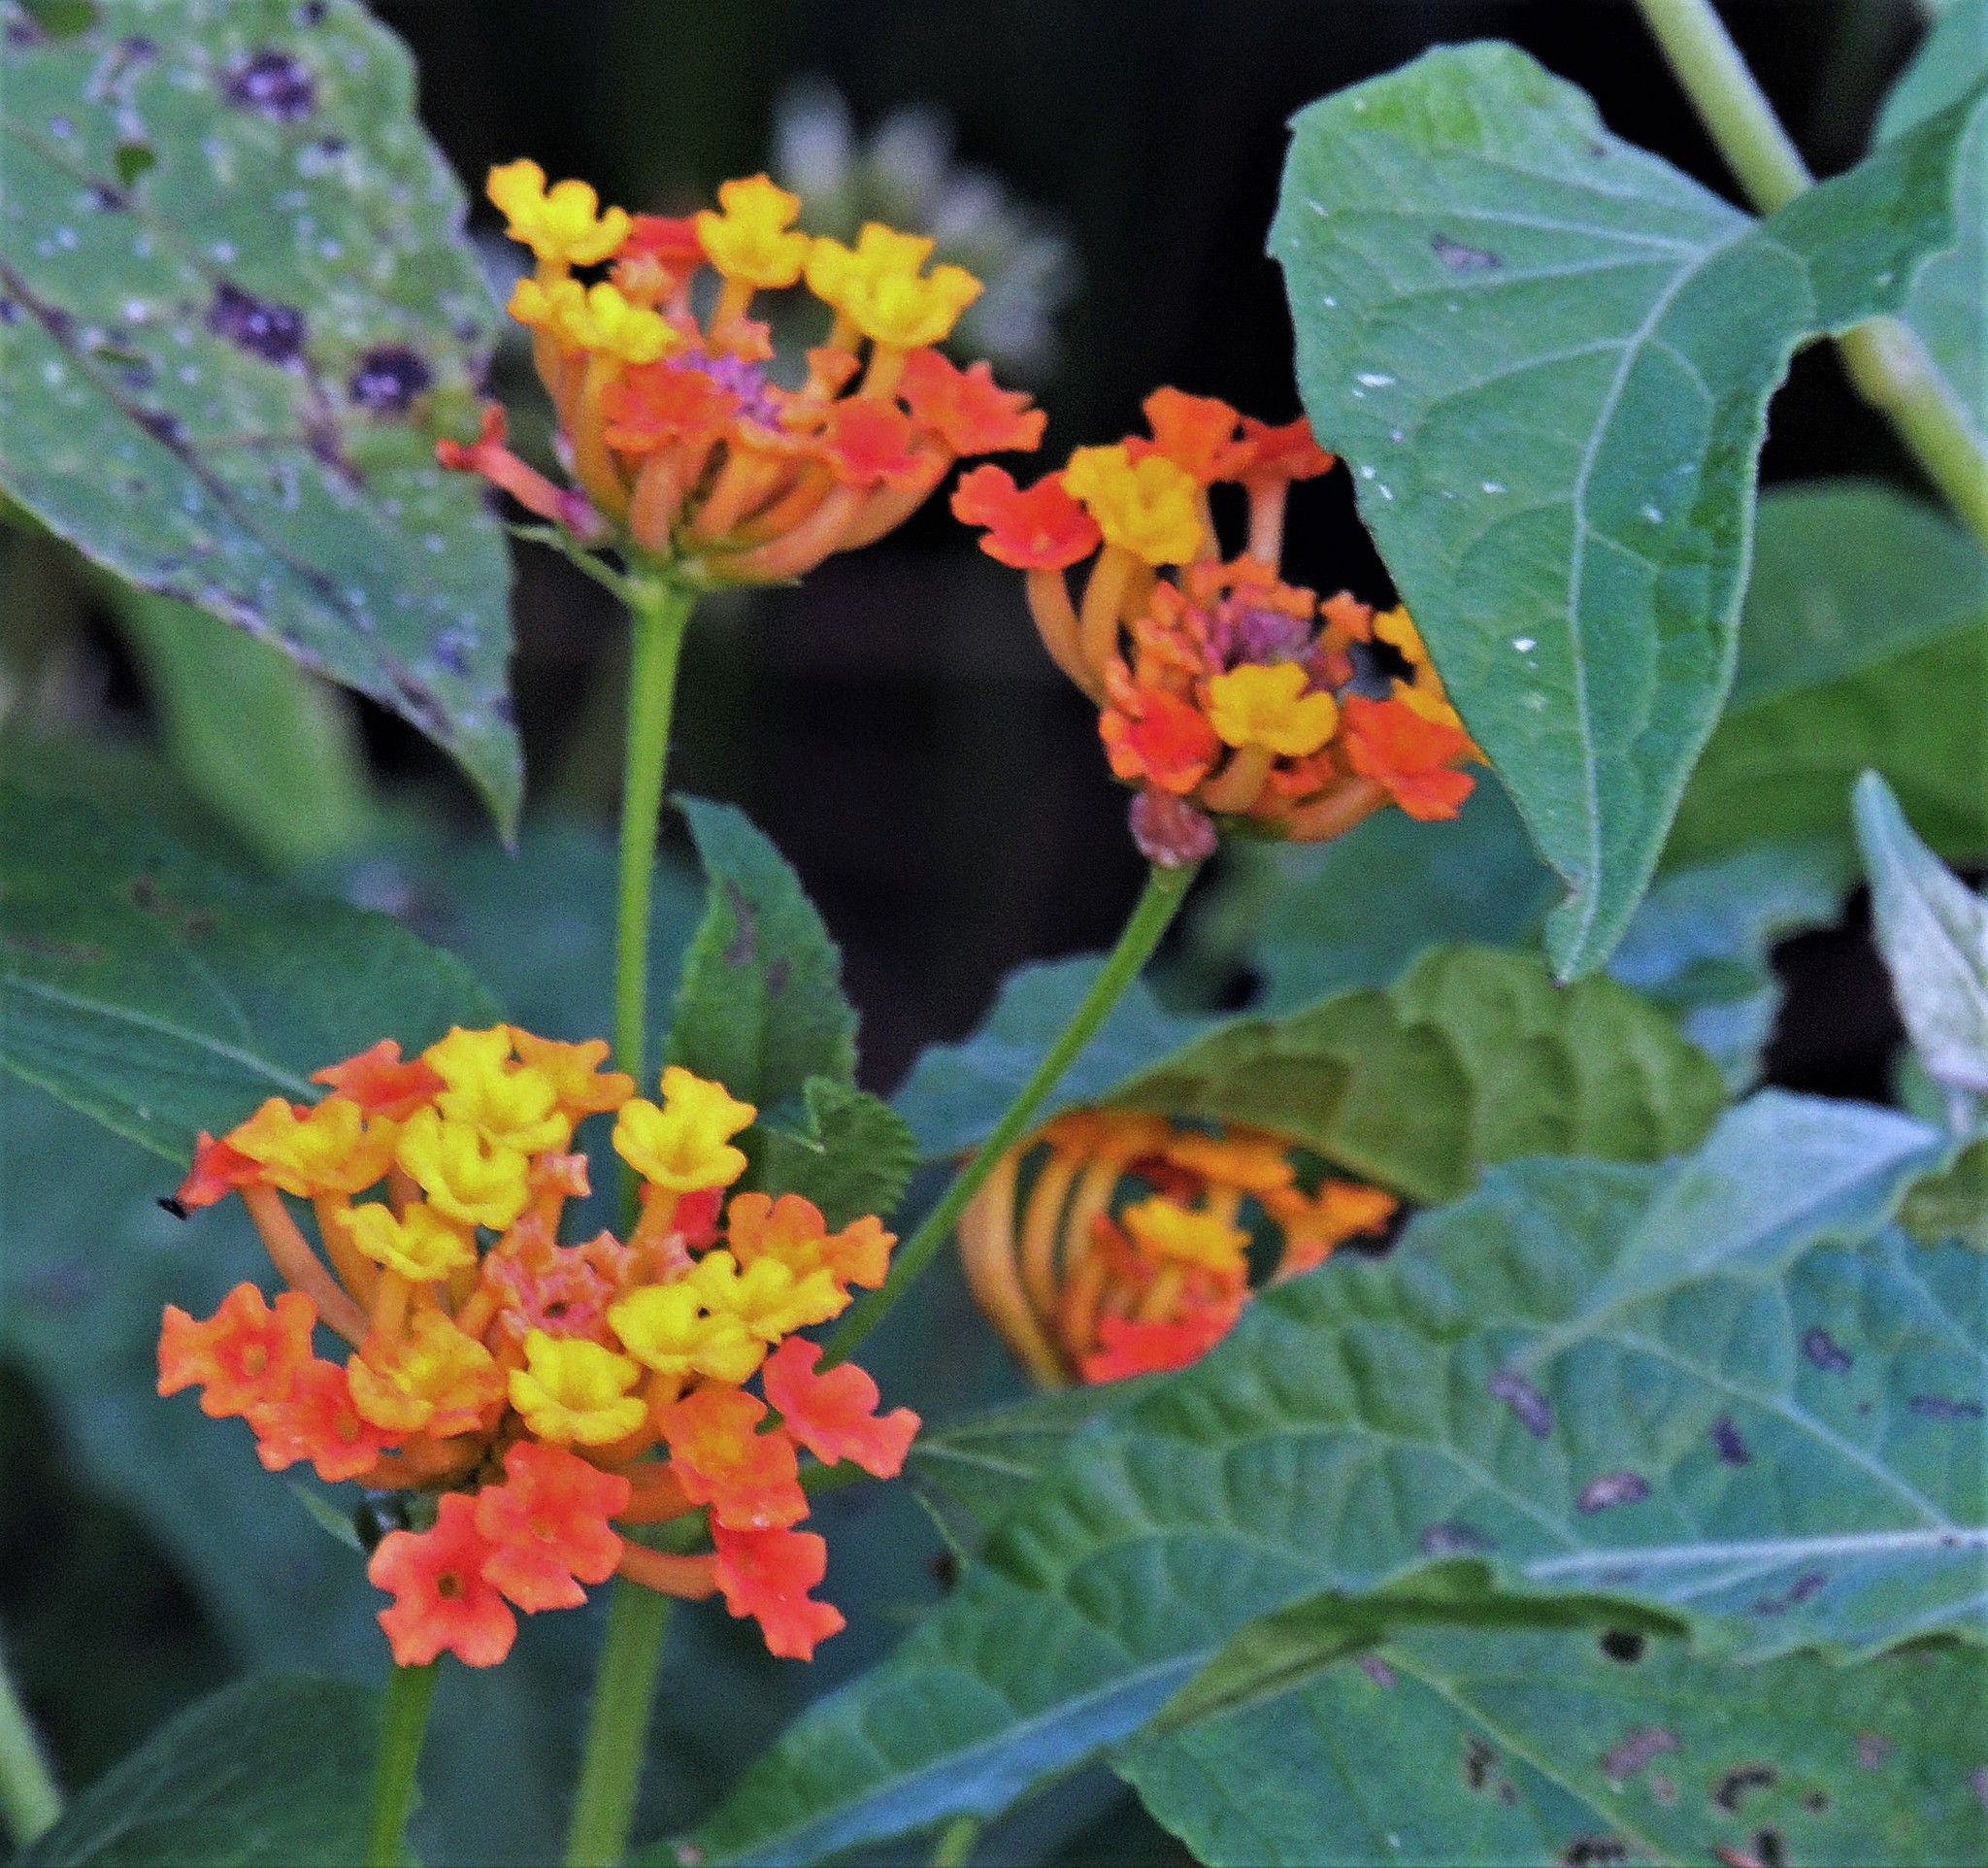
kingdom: Plantae
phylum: Tracheophyta
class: Magnoliopsida
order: Lamiales
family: Verbenaceae
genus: Lantana
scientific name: Lantana camara
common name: Lantana
